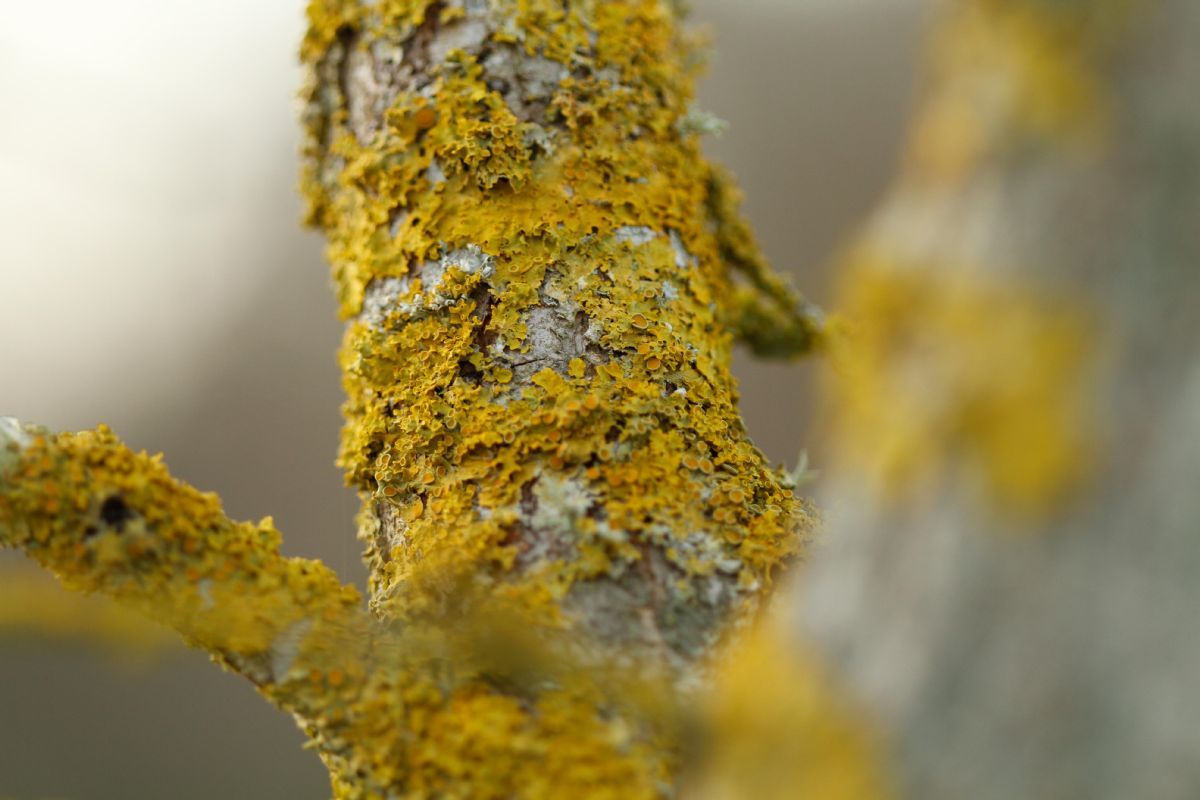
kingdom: Fungi
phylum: Ascomycota
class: Lecanoromycetes
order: Teloschistales
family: Teloschistaceae
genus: Xanthoria
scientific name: Xanthoria parietina
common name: Common orange lichen
